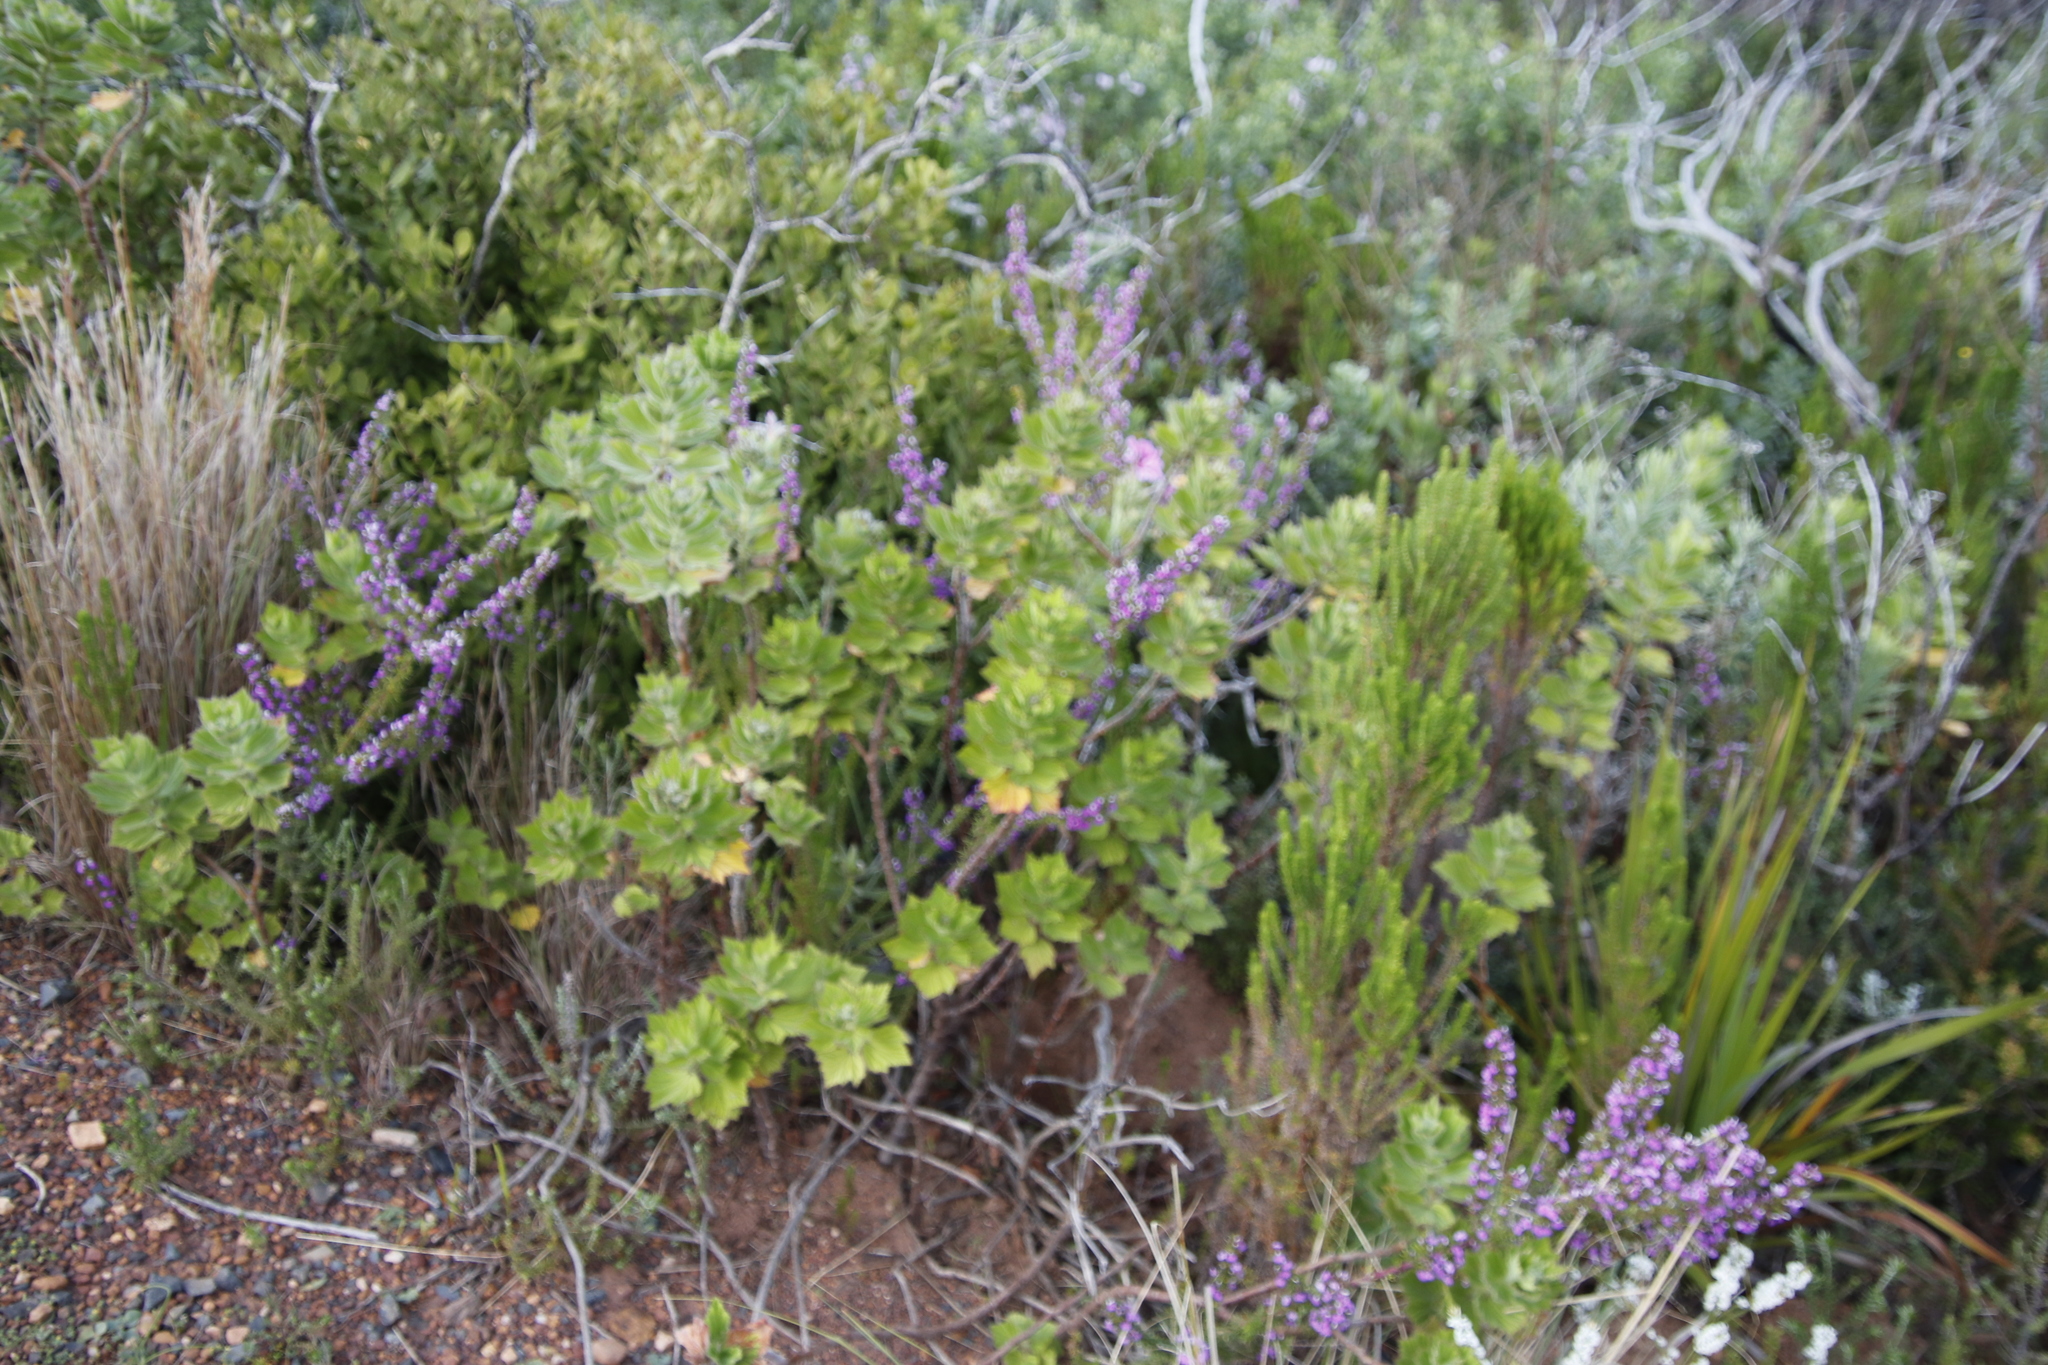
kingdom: Plantae
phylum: Tracheophyta
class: Magnoliopsida
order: Geraniales
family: Geraniaceae
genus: Pelargonium
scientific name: Pelargonium cucullatum
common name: Tree pelargonium
